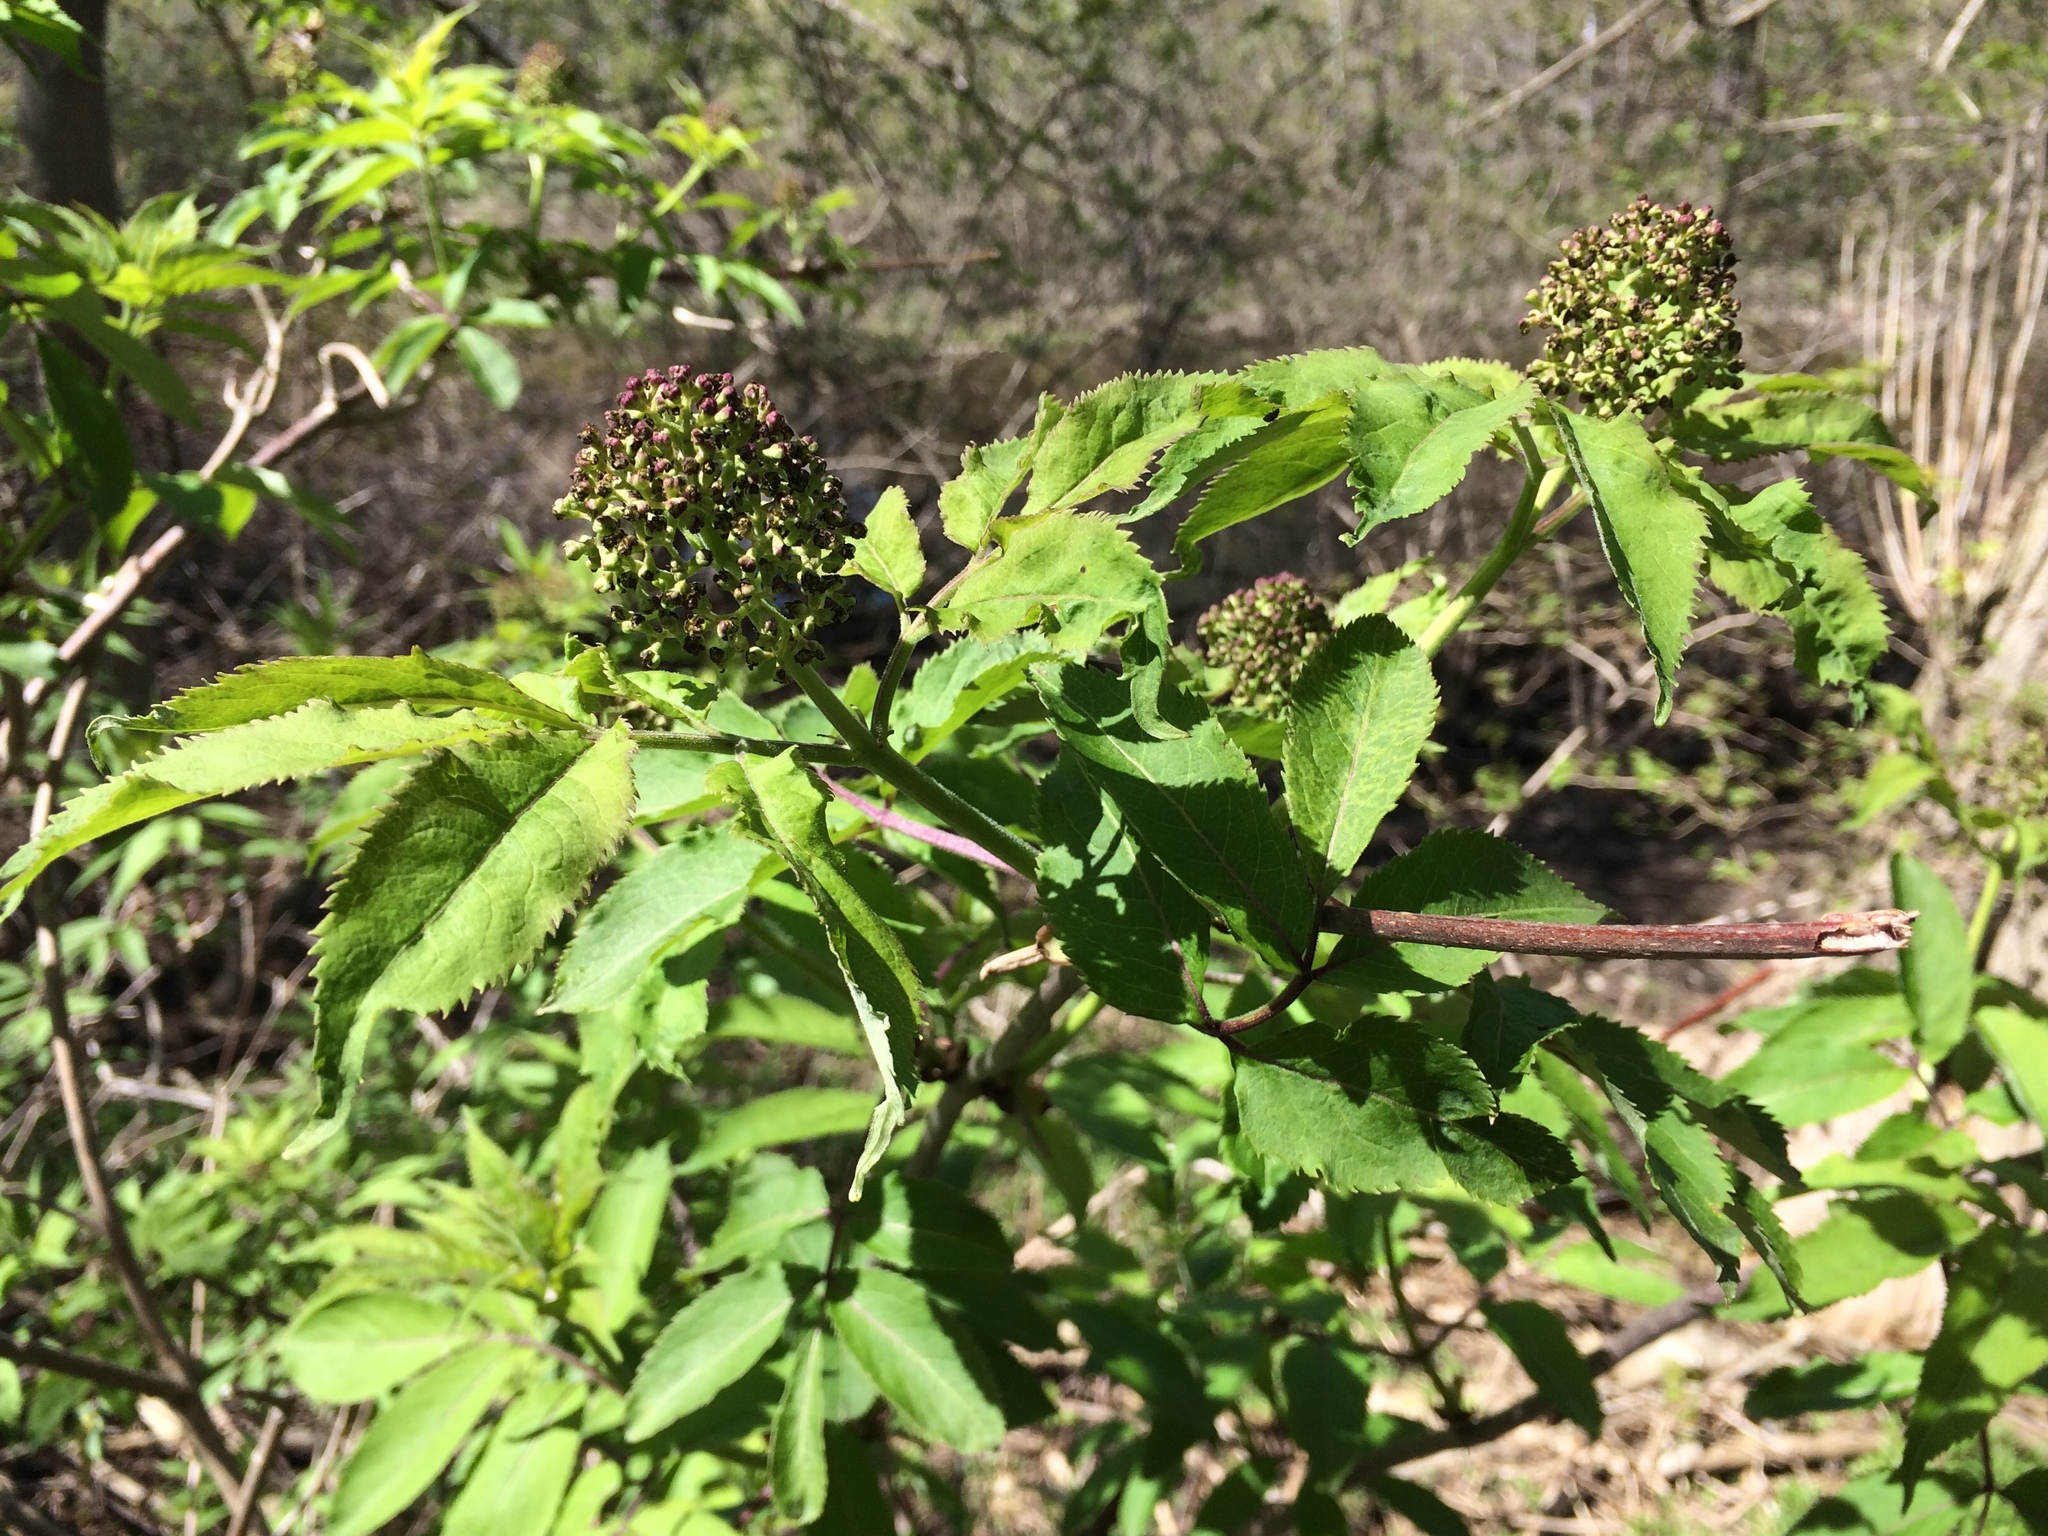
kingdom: Plantae
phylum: Tracheophyta
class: Magnoliopsida
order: Dipsacales
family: Viburnaceae
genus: Sambucus
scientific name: Sambucus racemosa
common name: Red-berried elder
